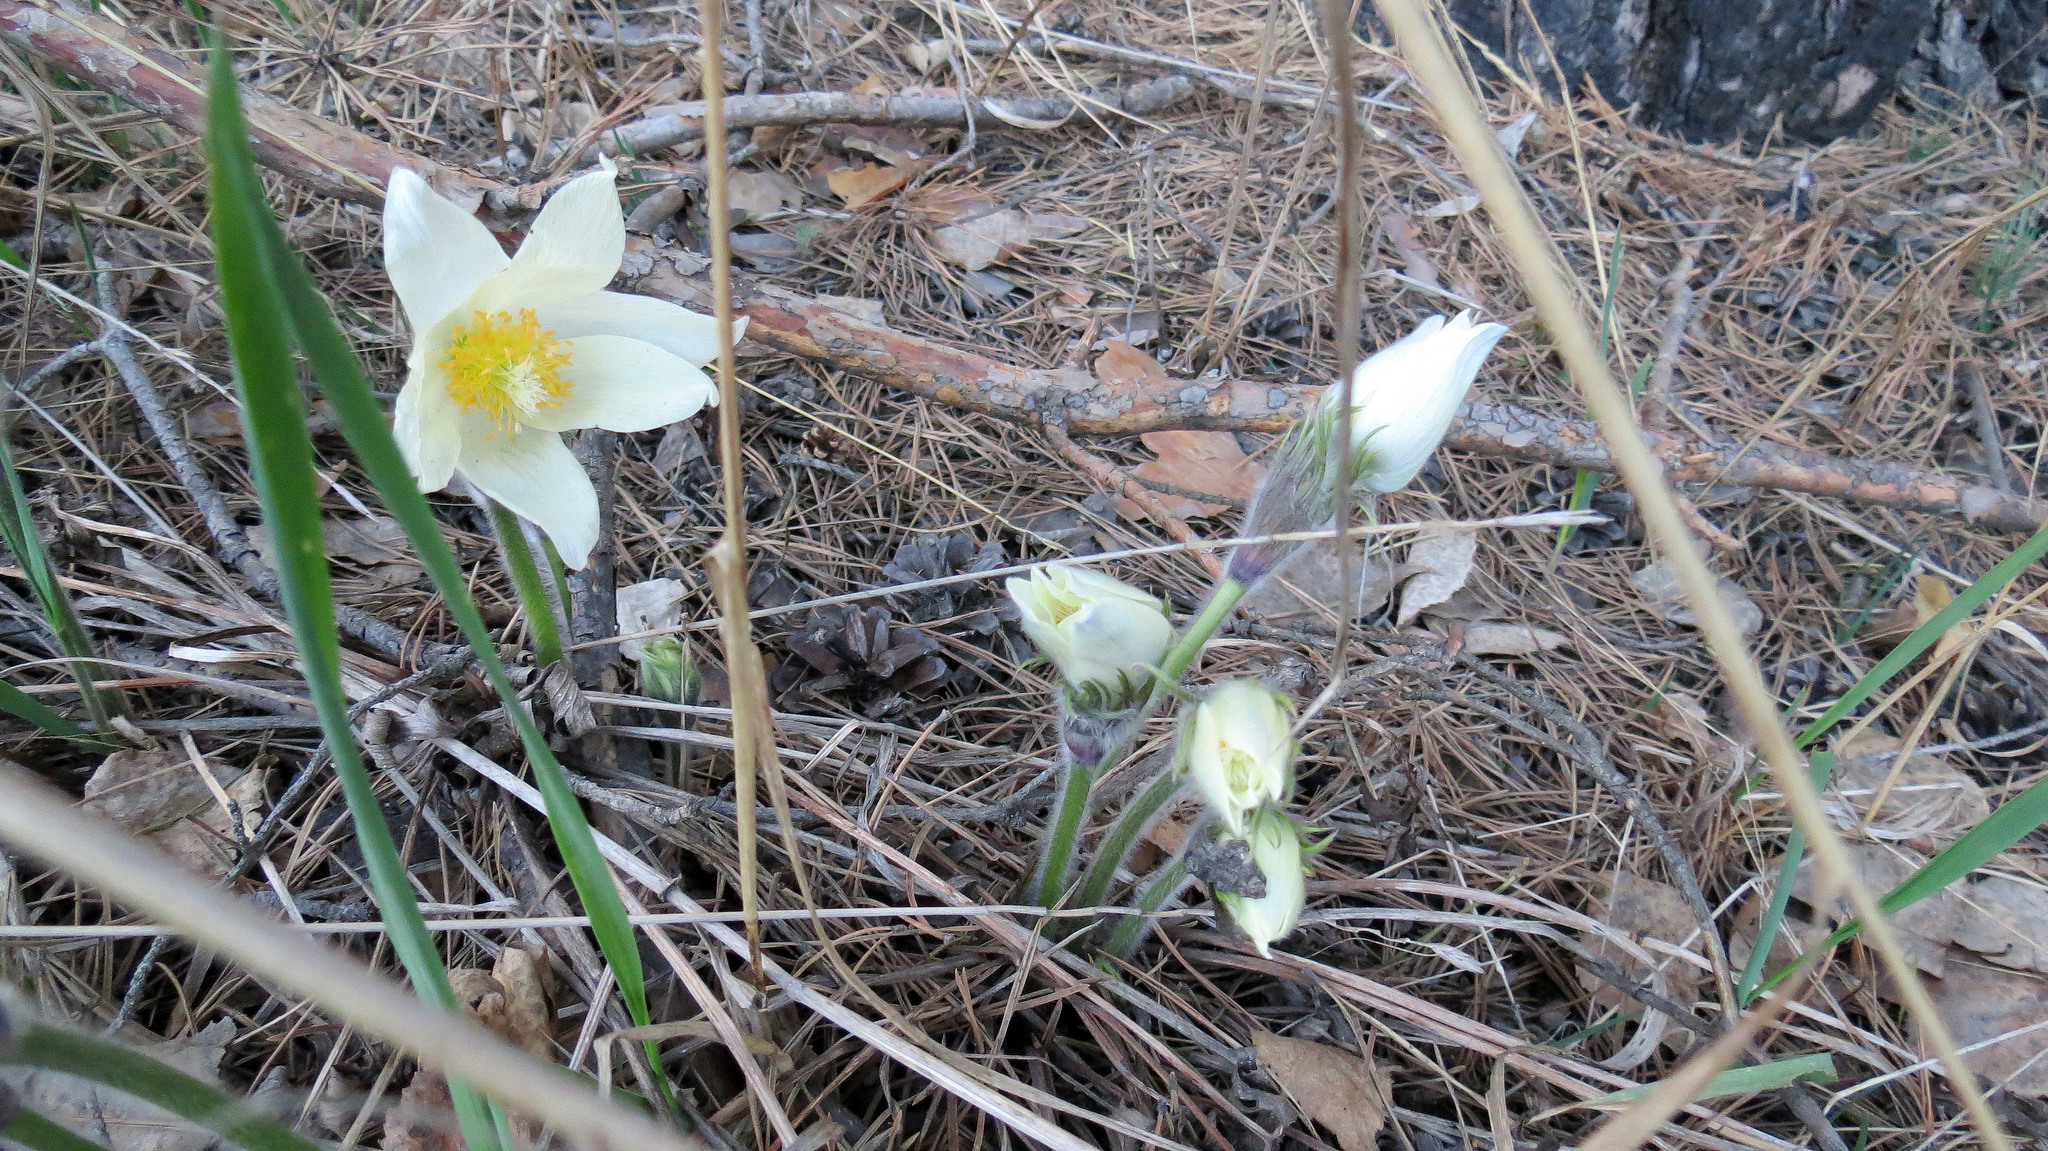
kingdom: Plantae
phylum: Tracheophyta
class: Magnoliopsida
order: Ranunculales
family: Ranunculaceae
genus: Pulsatilla
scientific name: Pulsatilla patens
